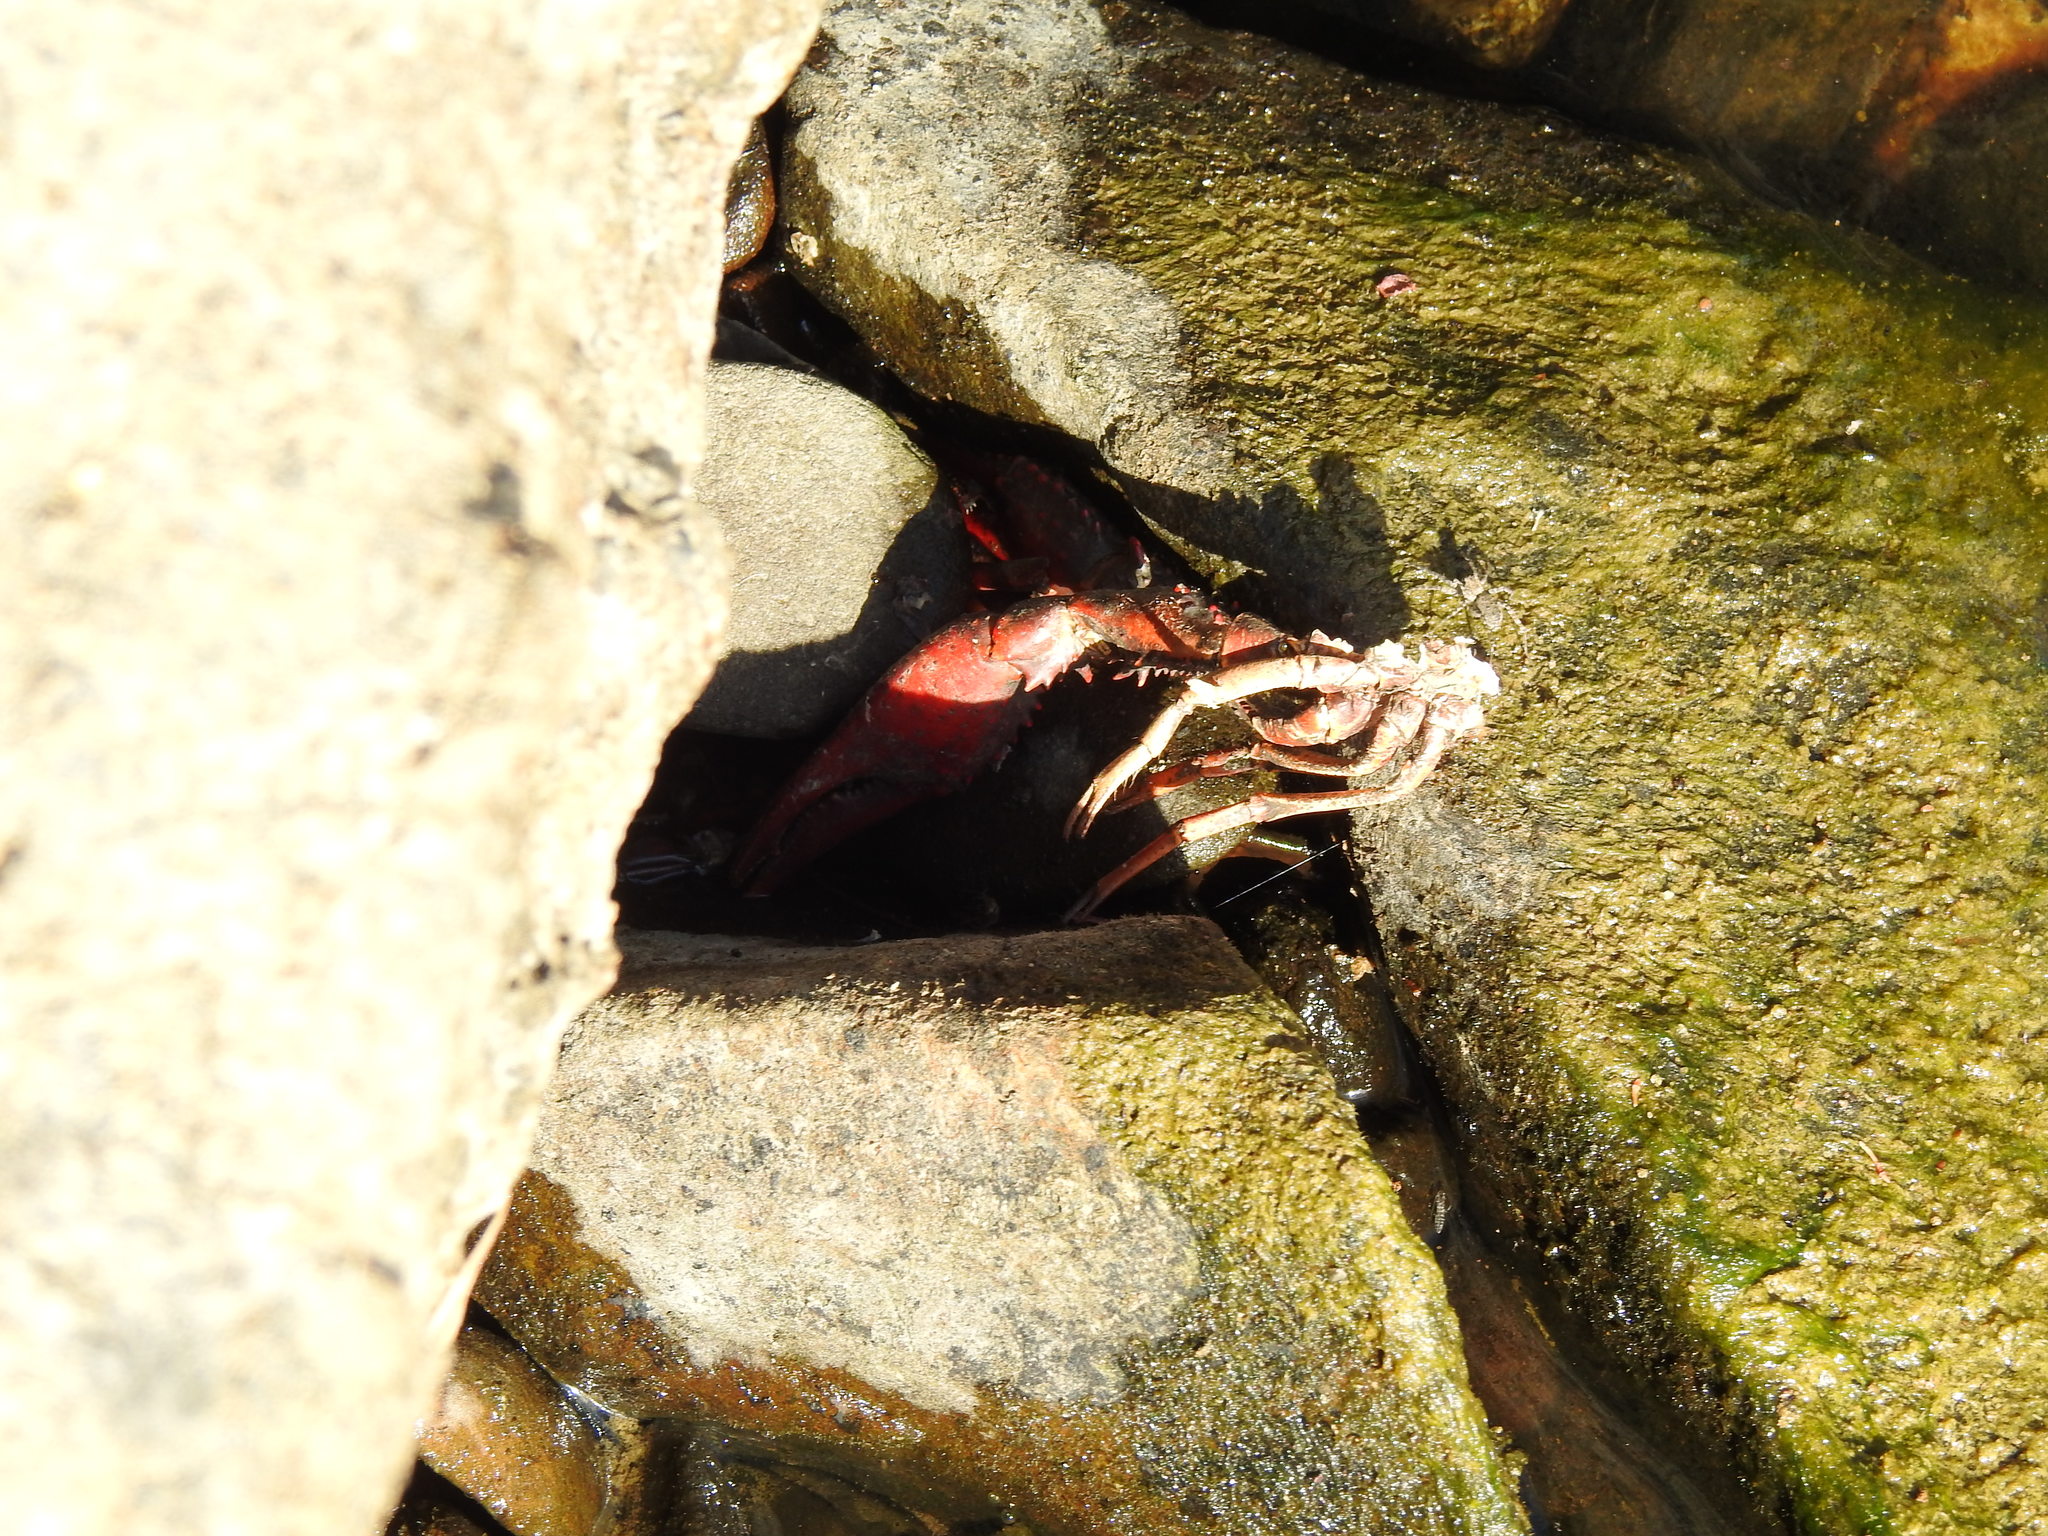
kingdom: Animalia
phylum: Arthropoda
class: Malacostraca
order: Decapoda
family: Cambaridae
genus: Procambarus
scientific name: Procambarus clarkii
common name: Red swamp crayfish
